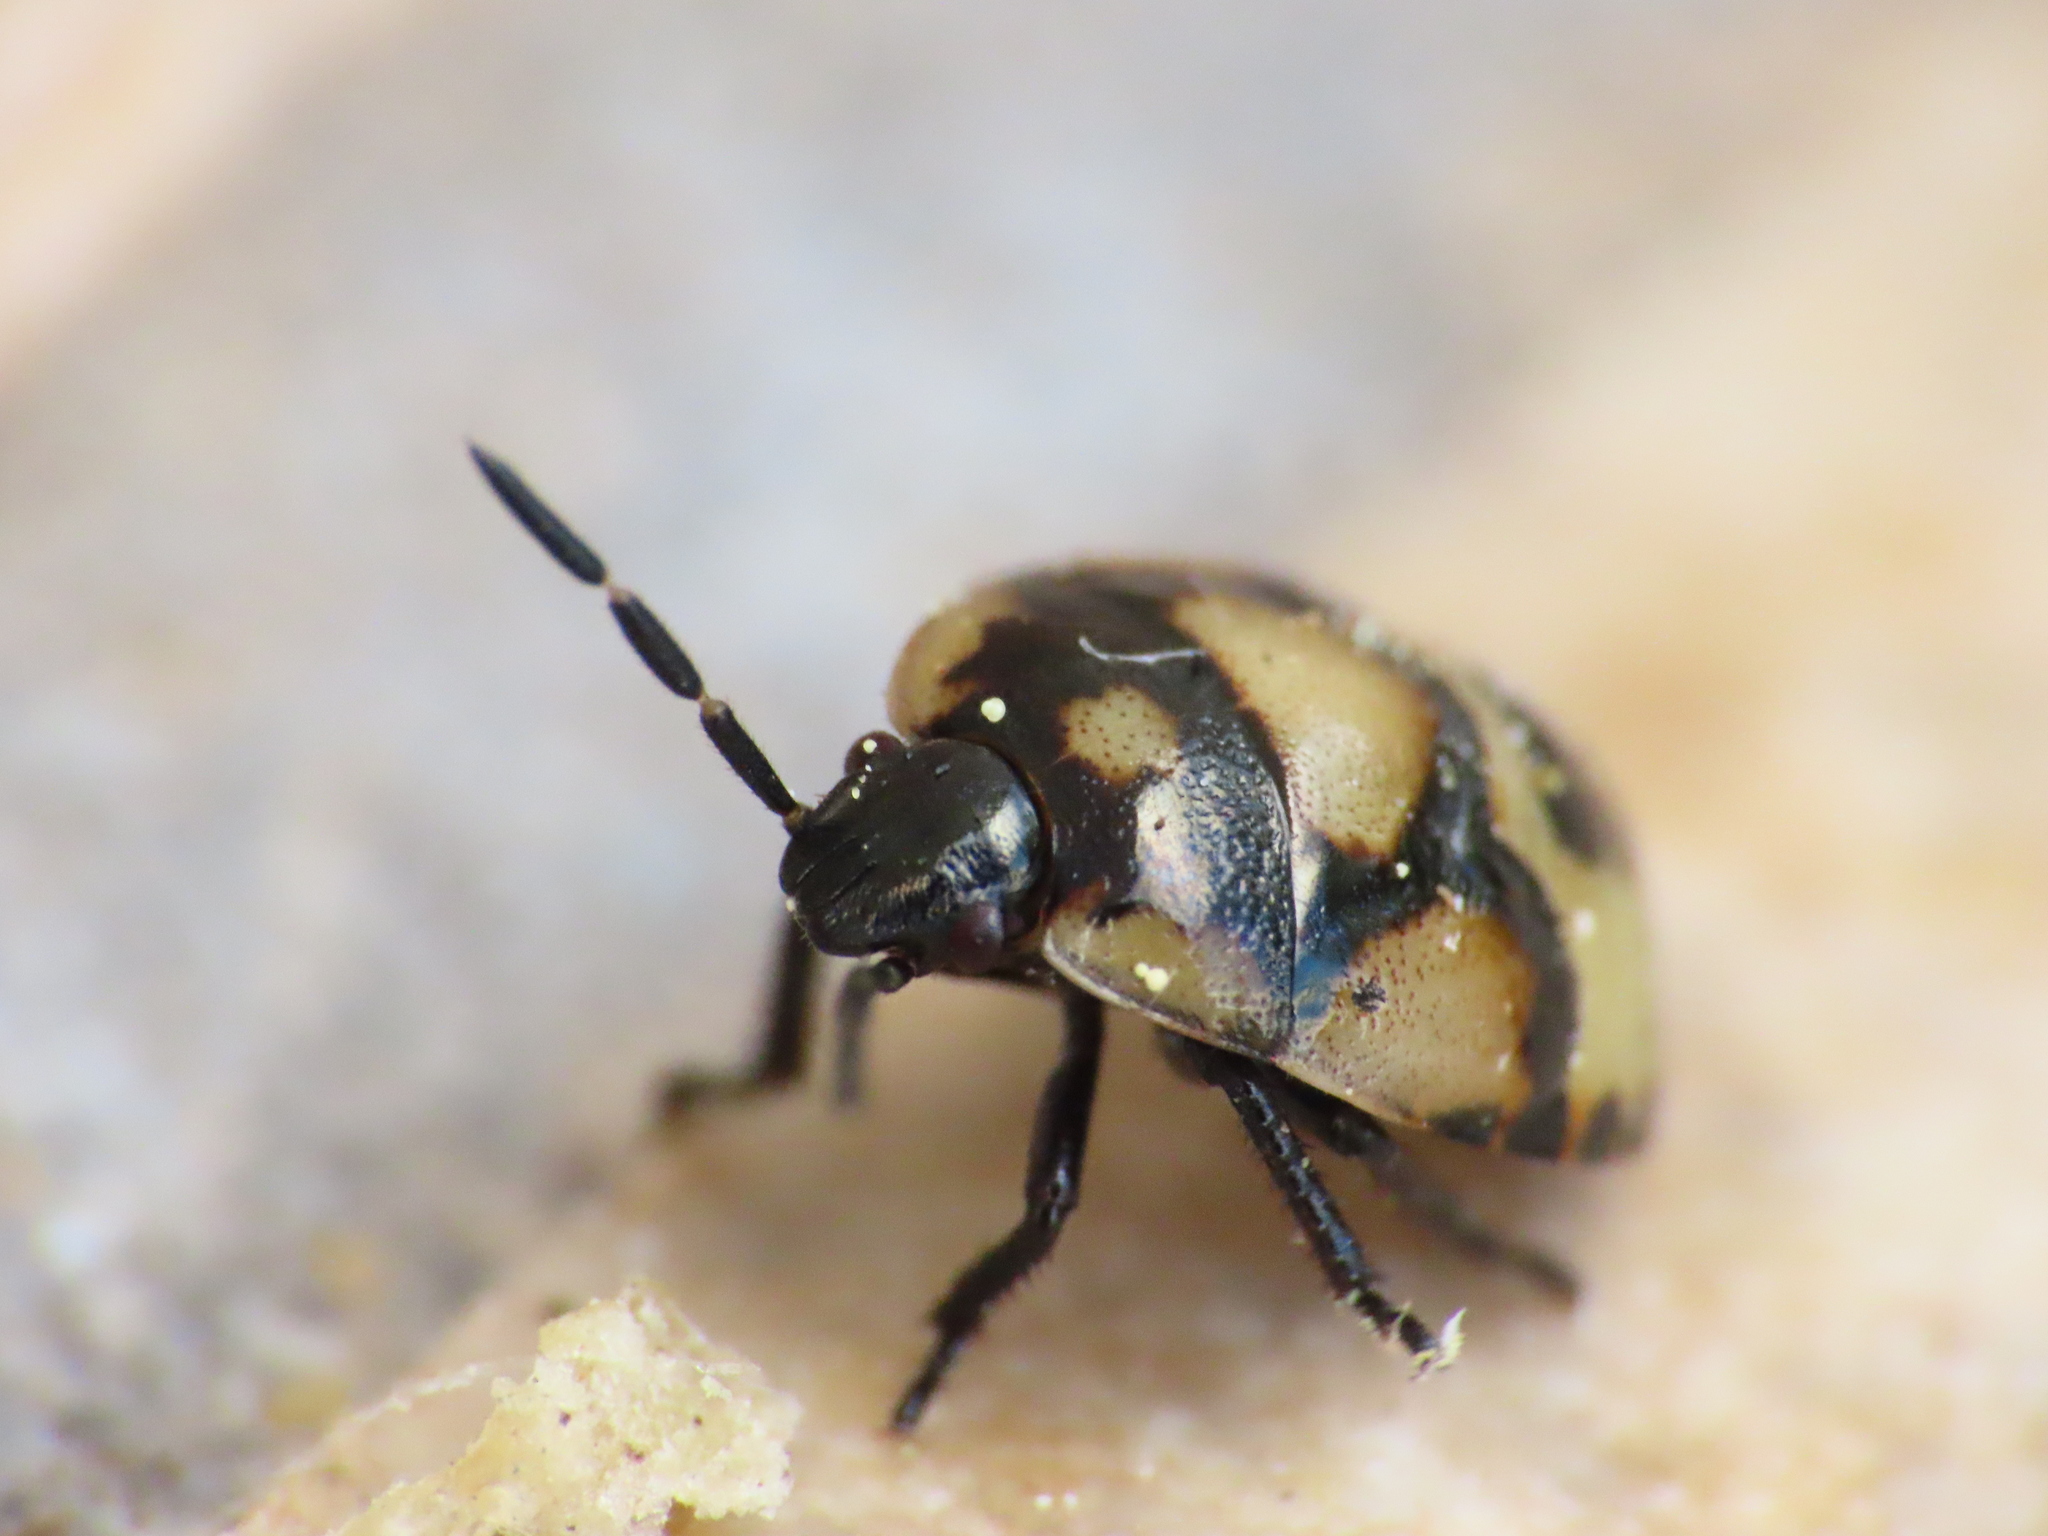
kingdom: Animalia
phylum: Arthropoda
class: Insecta
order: Hemiptera
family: Cydnidae
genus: Tritomegas
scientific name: Tritomegas bicolor
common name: Pied shieldbug
